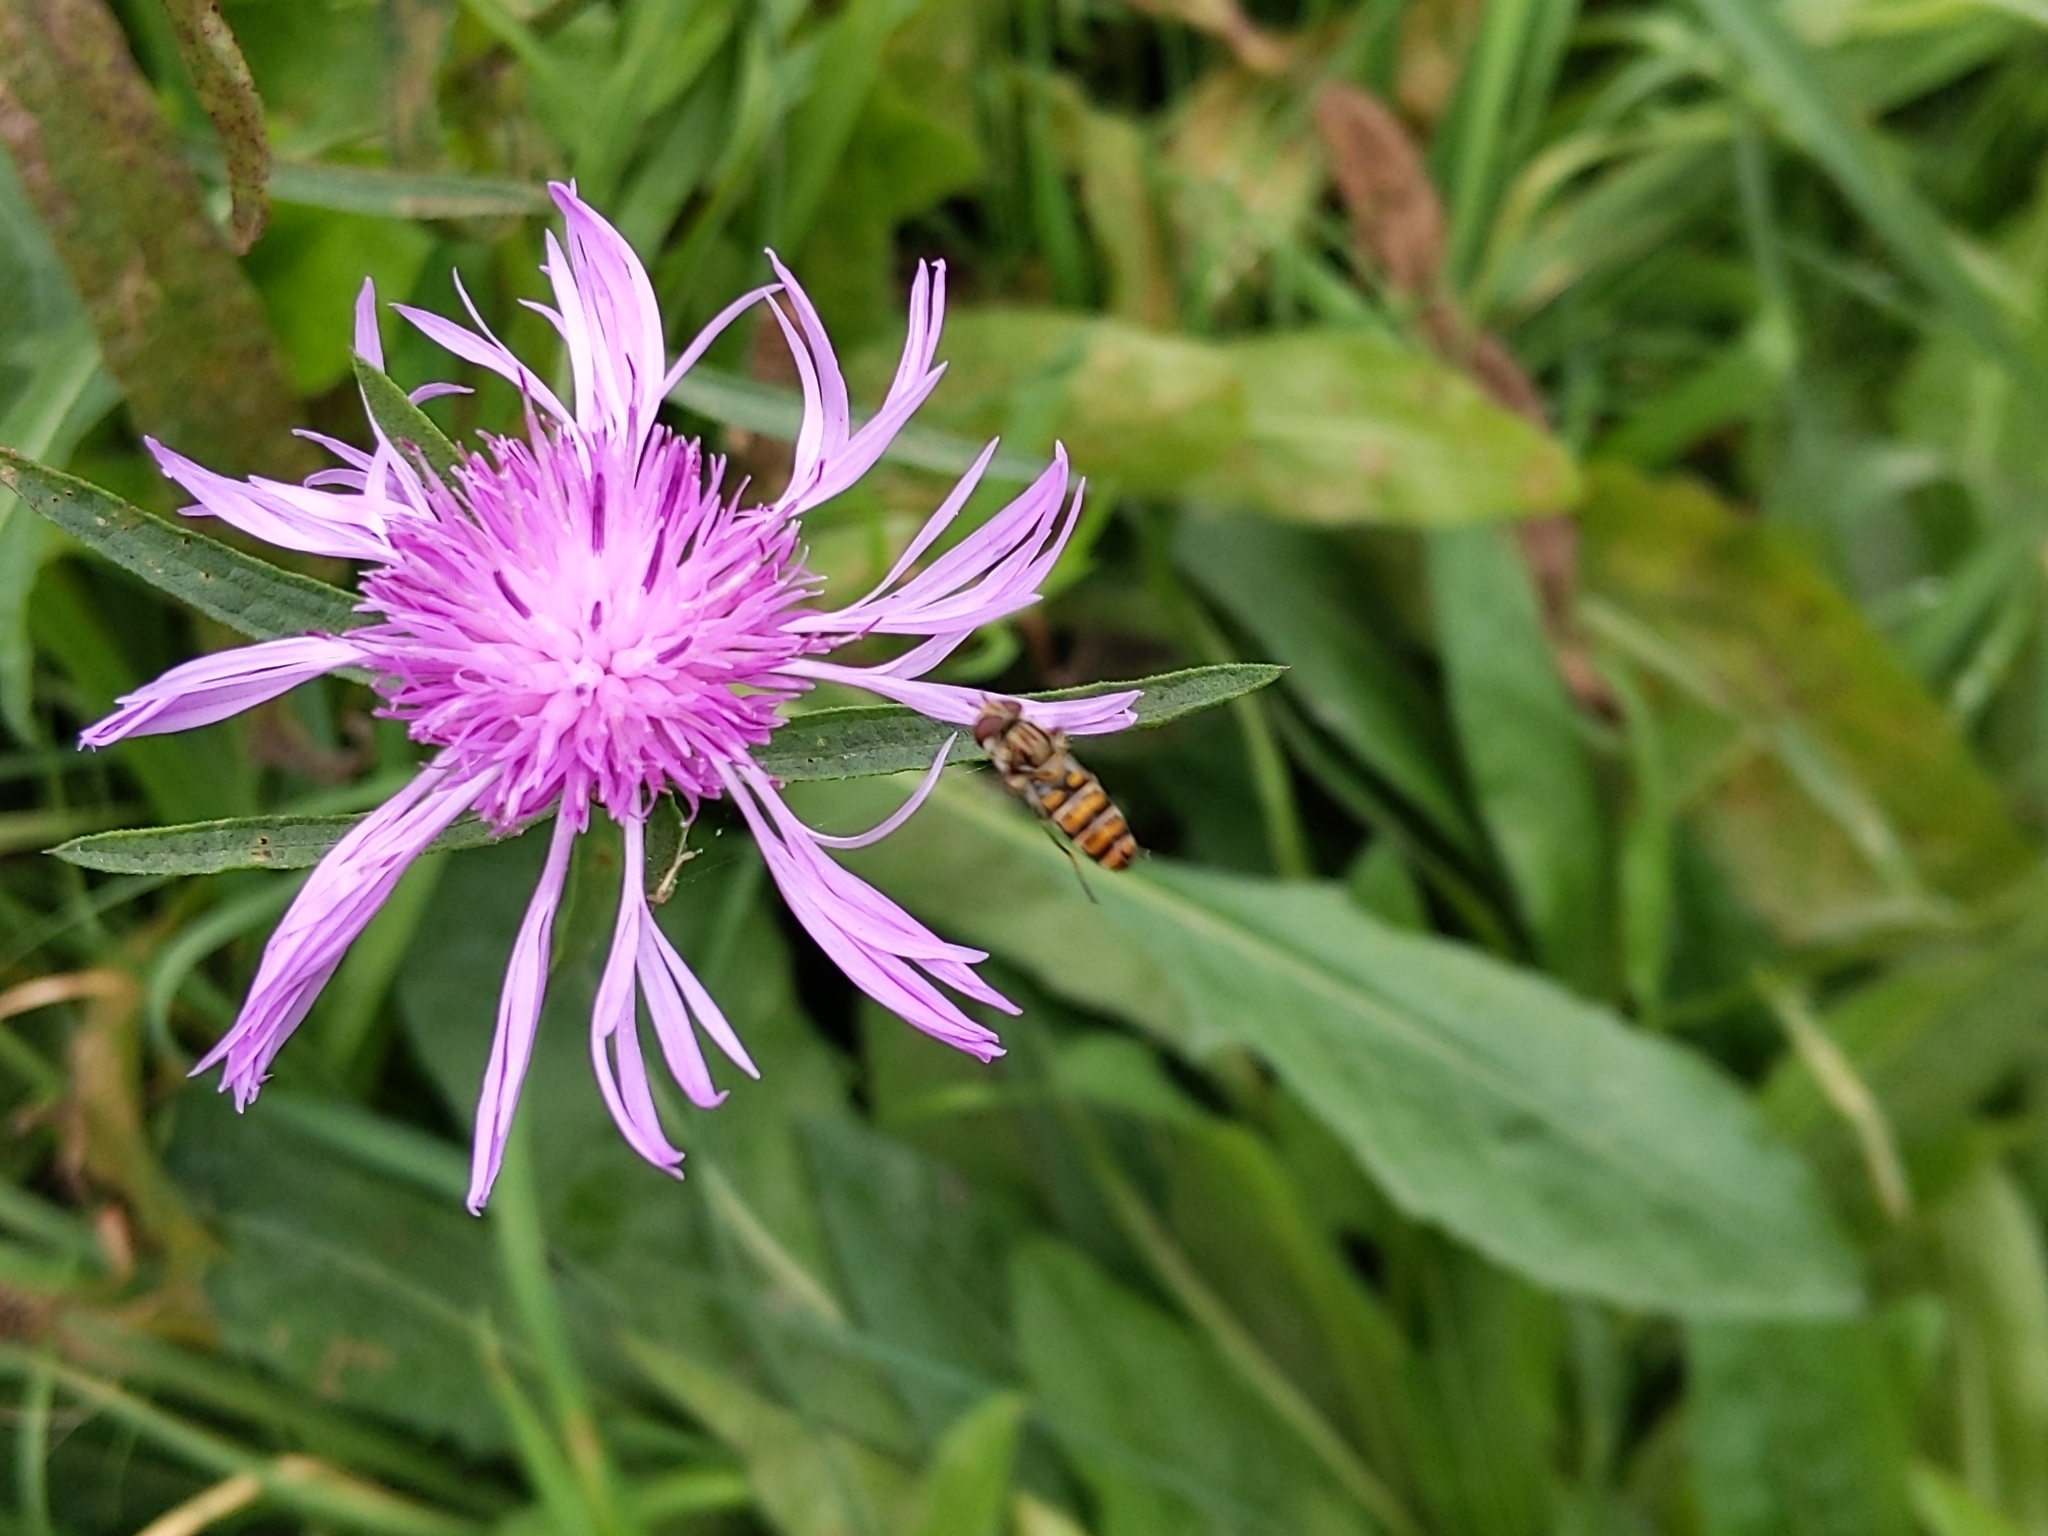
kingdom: Plantae
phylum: Tracheophyta
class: Magnoliopsida
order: Asterales
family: Asteraceae
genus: Centaurea
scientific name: Centaurea jacea
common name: Brown knapweed
